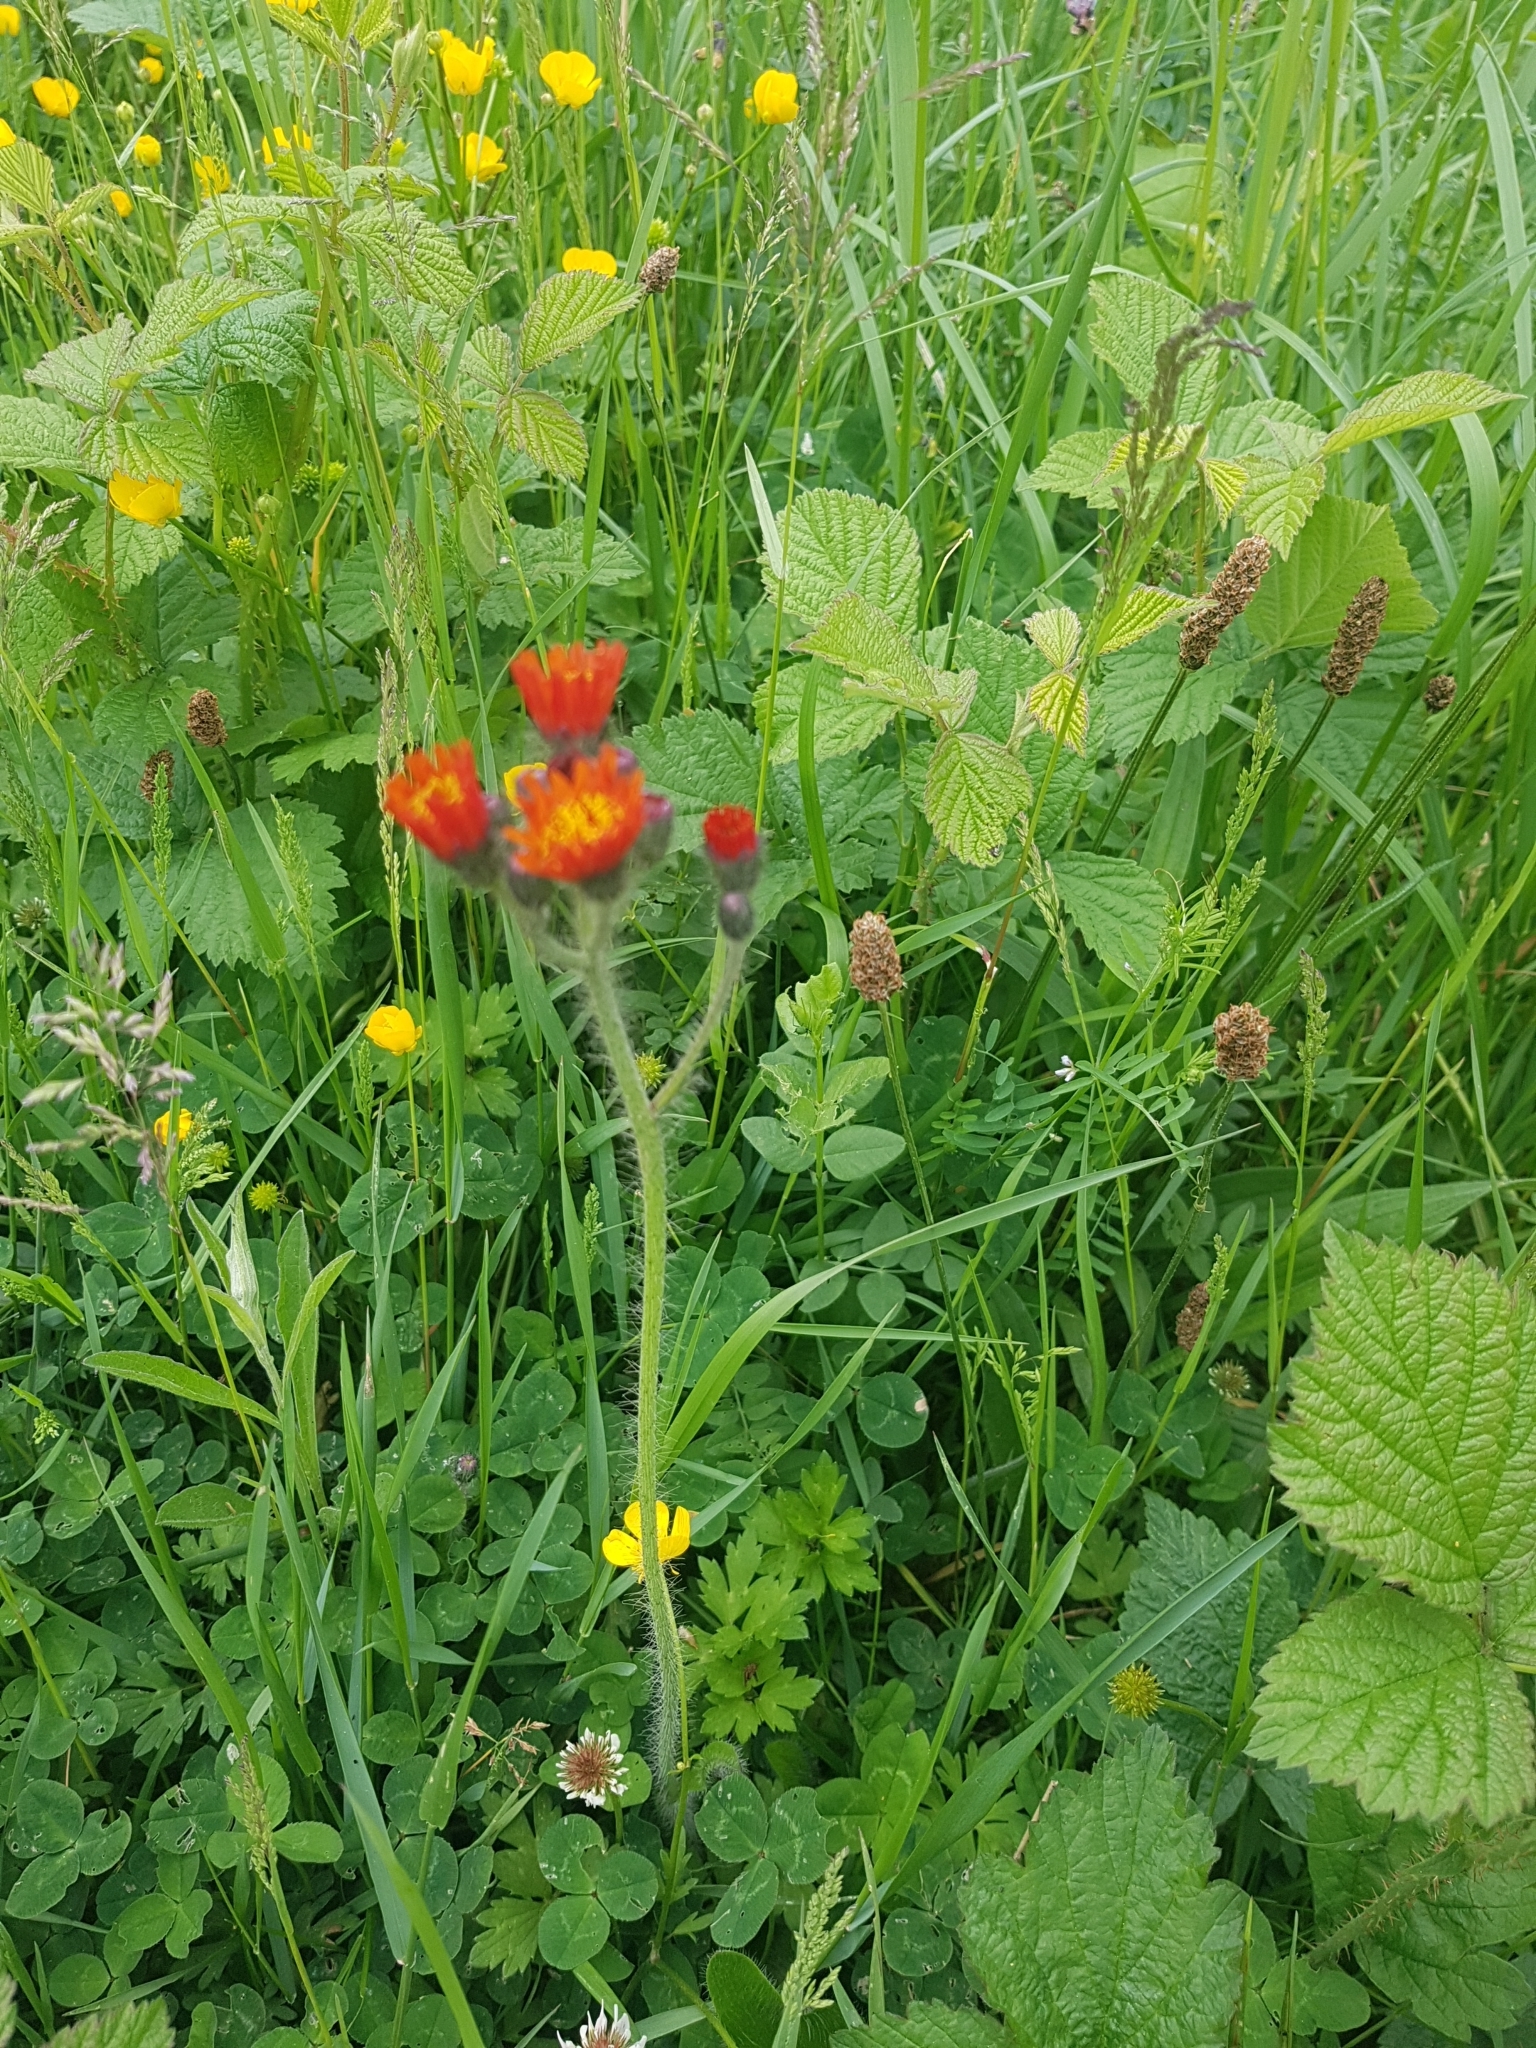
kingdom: Plantae
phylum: Tracheophyta
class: Magnoliopsida
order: Asterales
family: Asteraceae
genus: Pilosella
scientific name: Pilosella aurantiaca
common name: Fox-and-cubs
